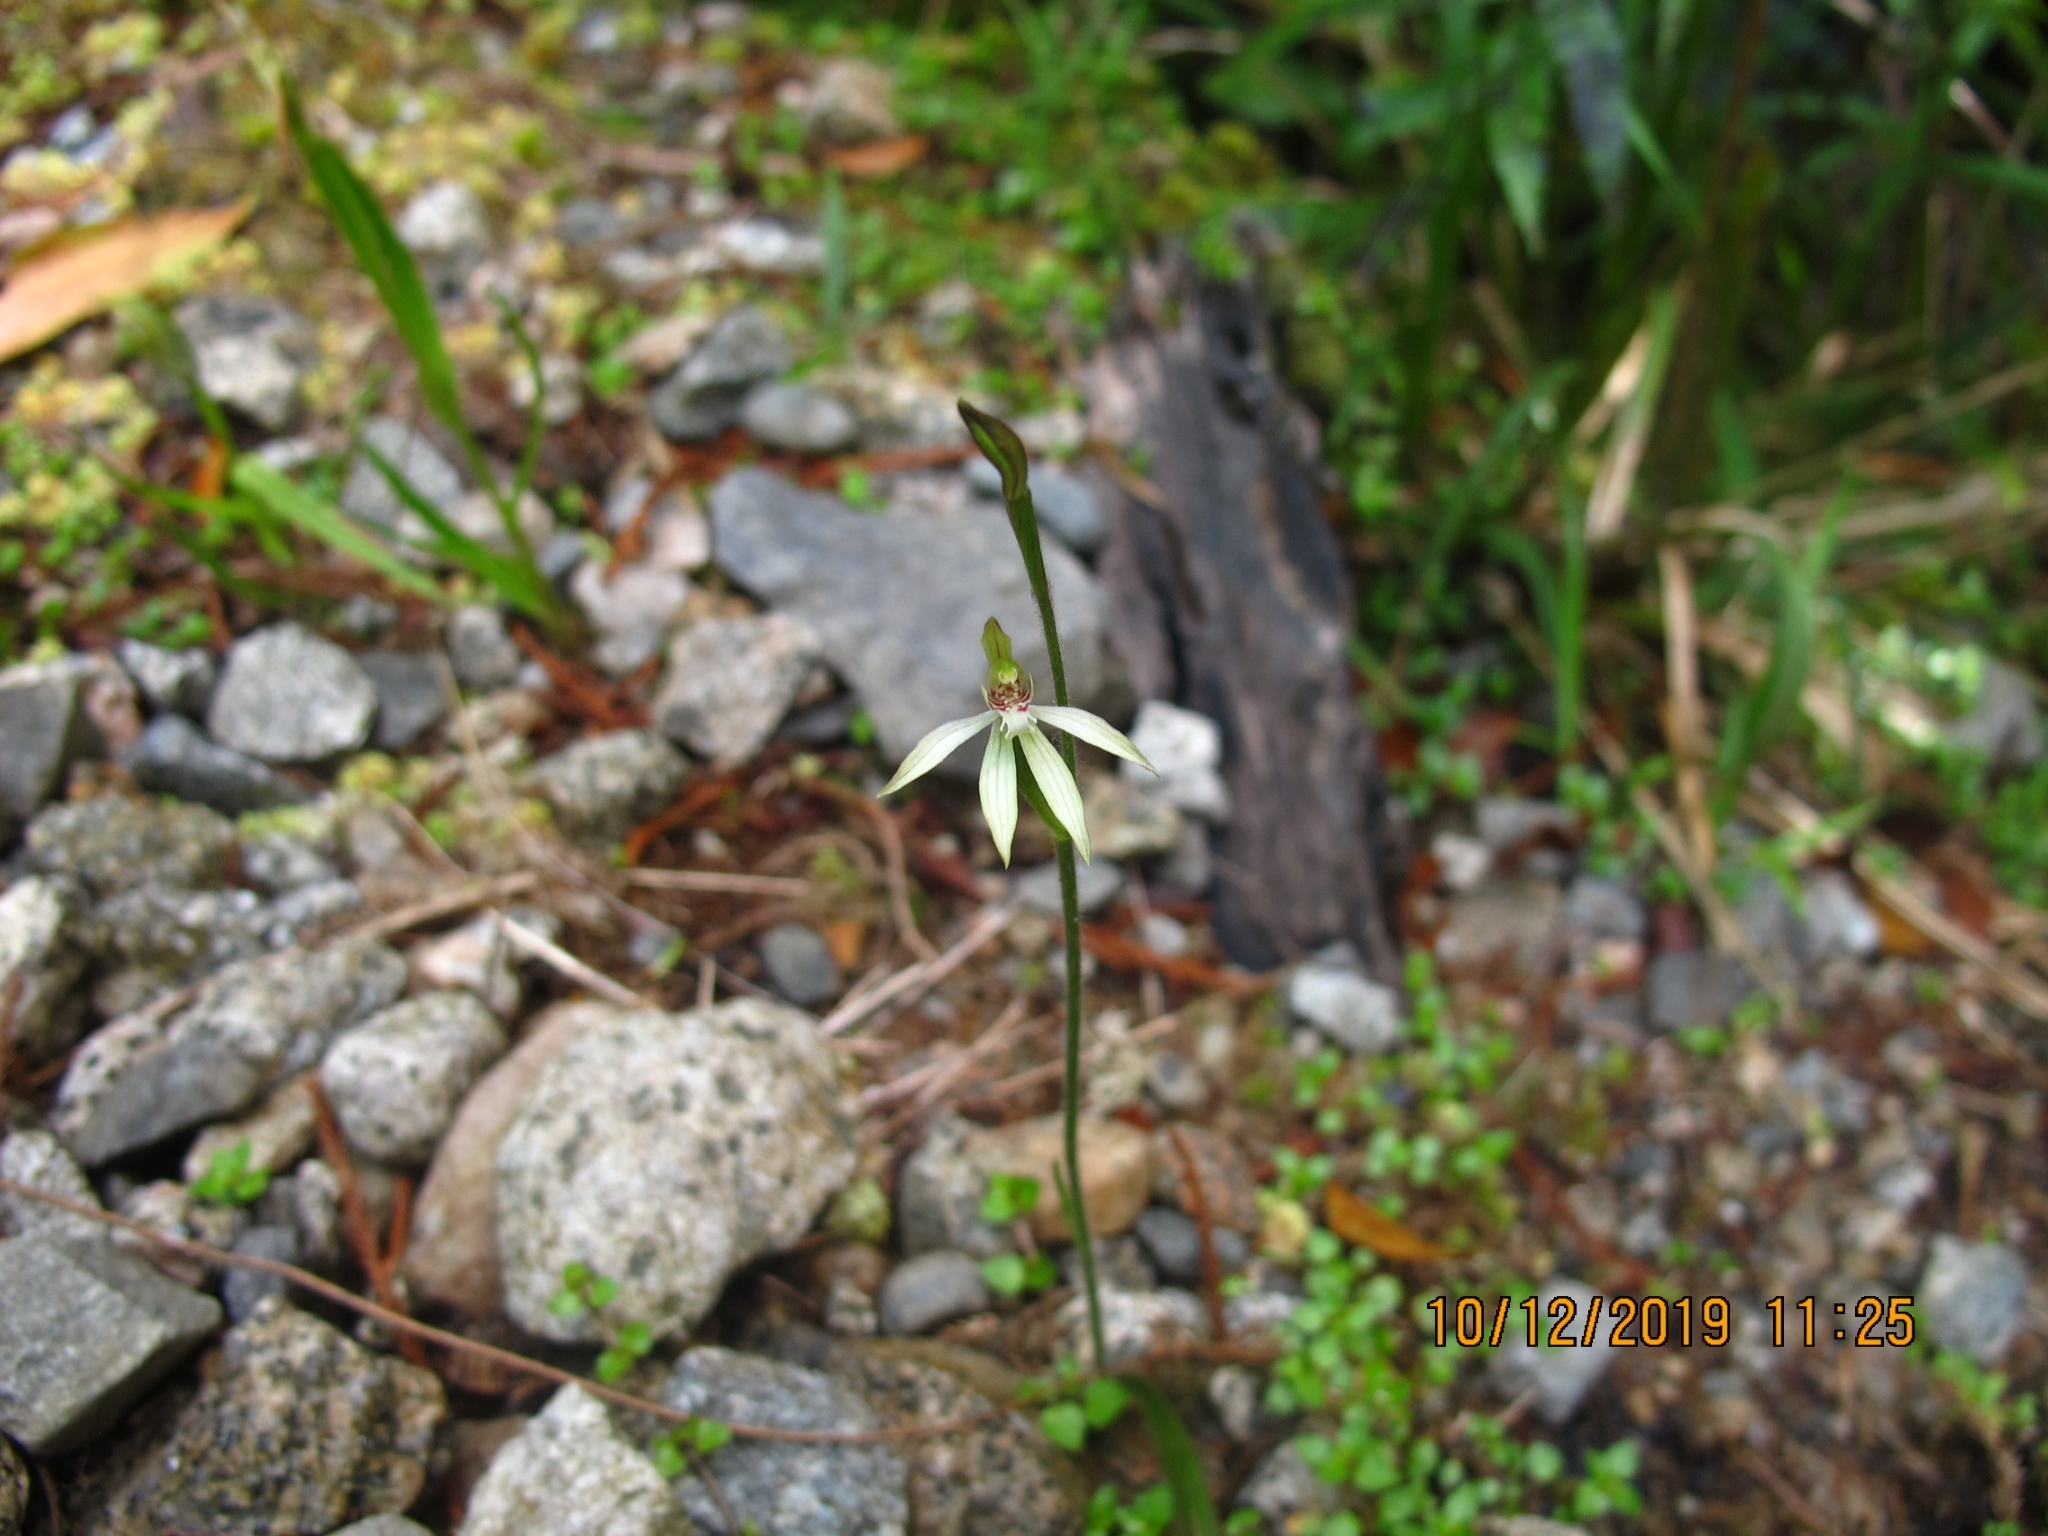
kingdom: Plantae
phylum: Tracheophyta
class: Liliopsida
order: Asparagales
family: Orchidaceae
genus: Caladenia
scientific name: Caladenia chlorostyla
